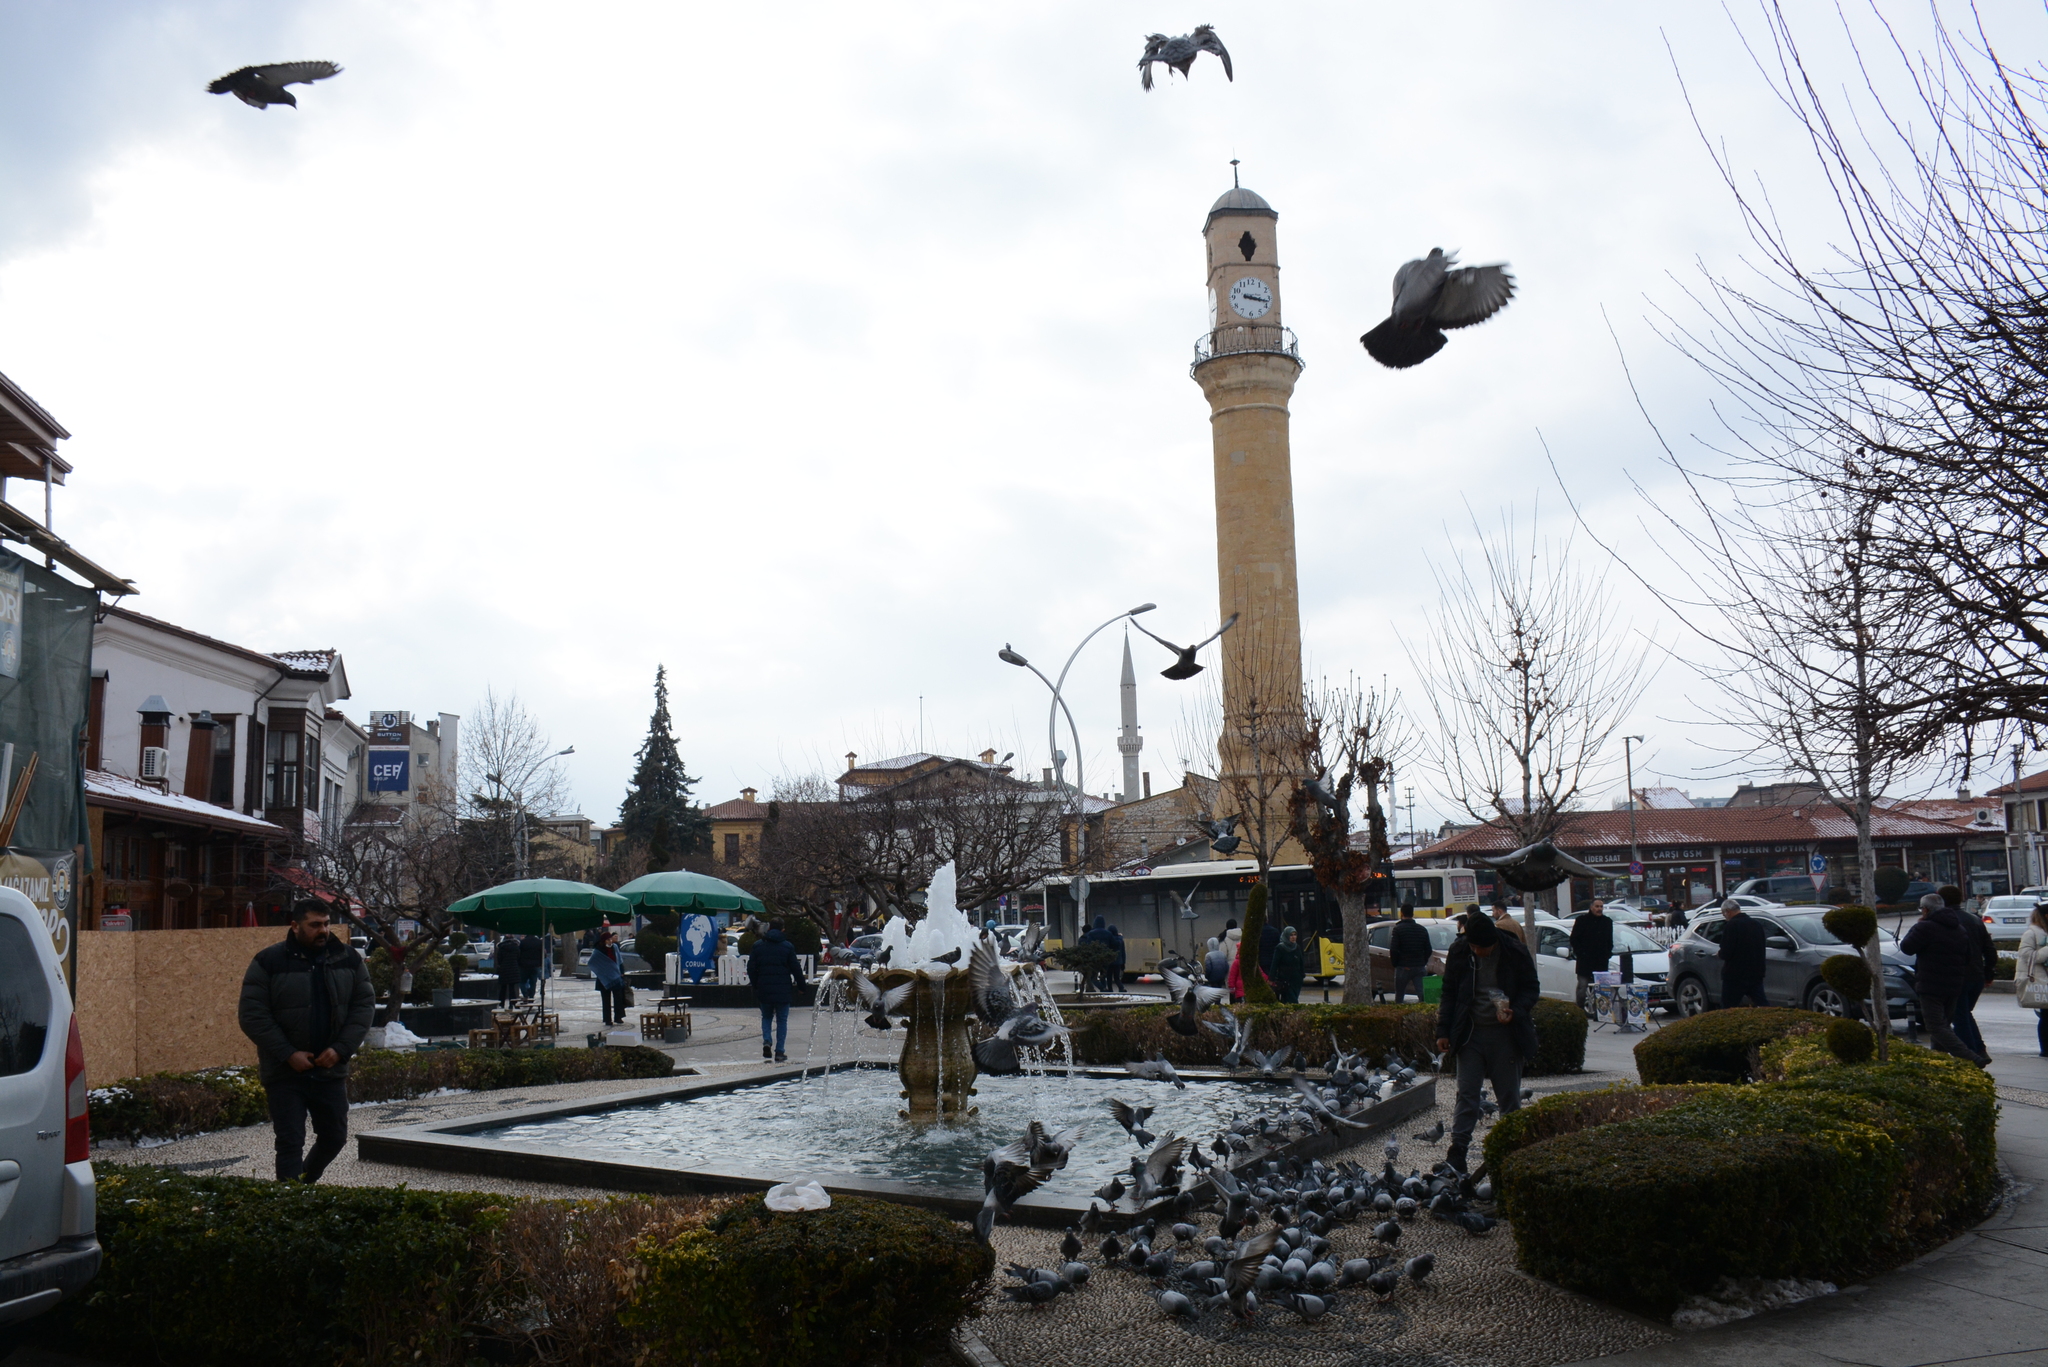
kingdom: Animalia
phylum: Chordata
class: Aves
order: Columbiformes
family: Columbidae
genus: Columba
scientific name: Columba livia
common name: Rock pigeon
